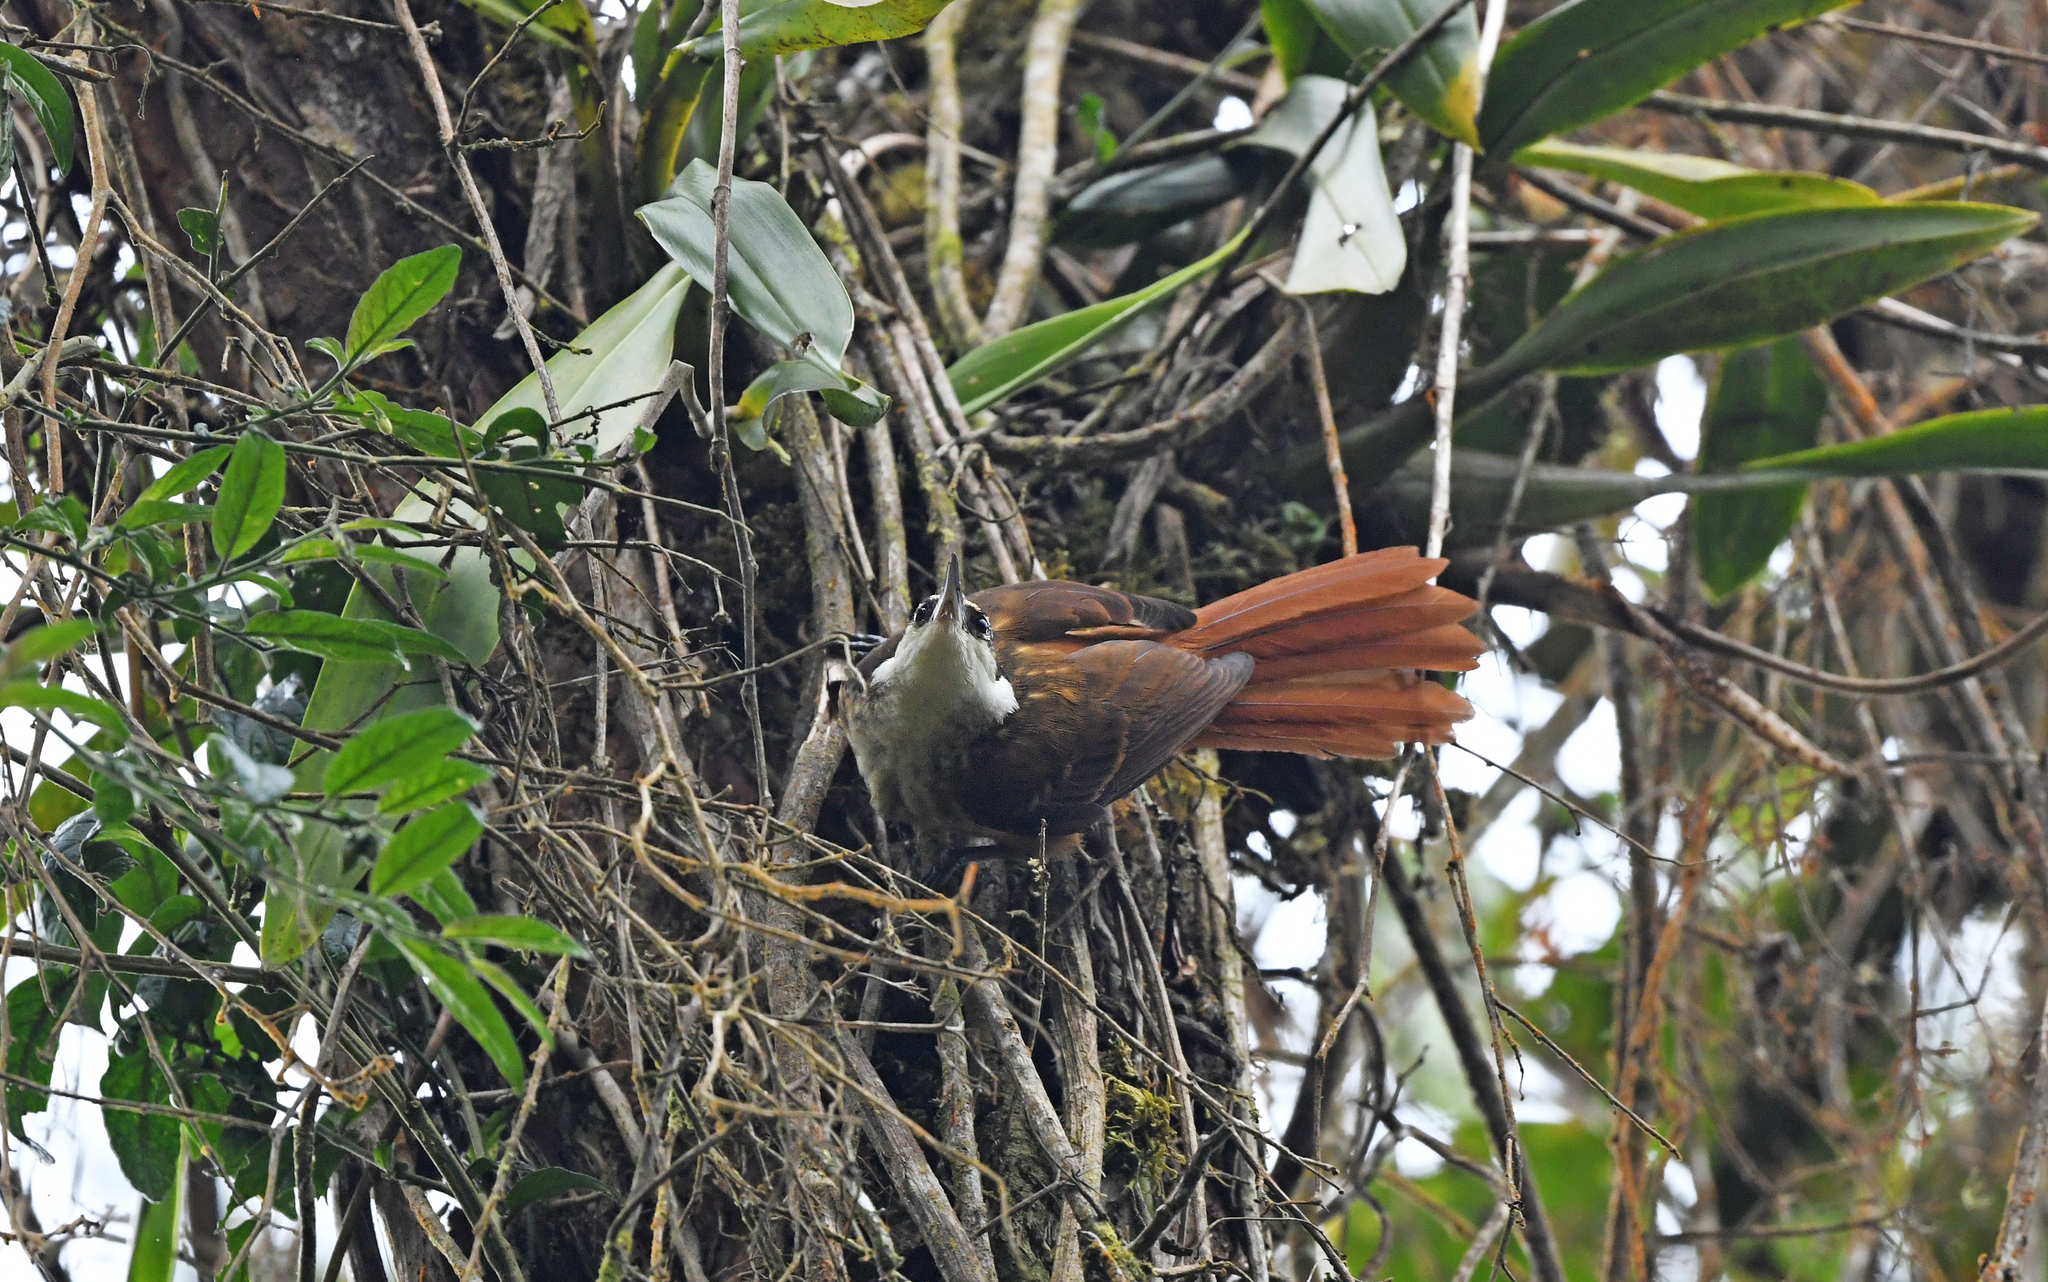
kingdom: Animalia
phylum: Chordata
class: Aves
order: Passeriformes
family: Furnariidae
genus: Pseudocolaptes
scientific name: Pseudocolaptes boissonneautii
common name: Streaked tuftedcheek
